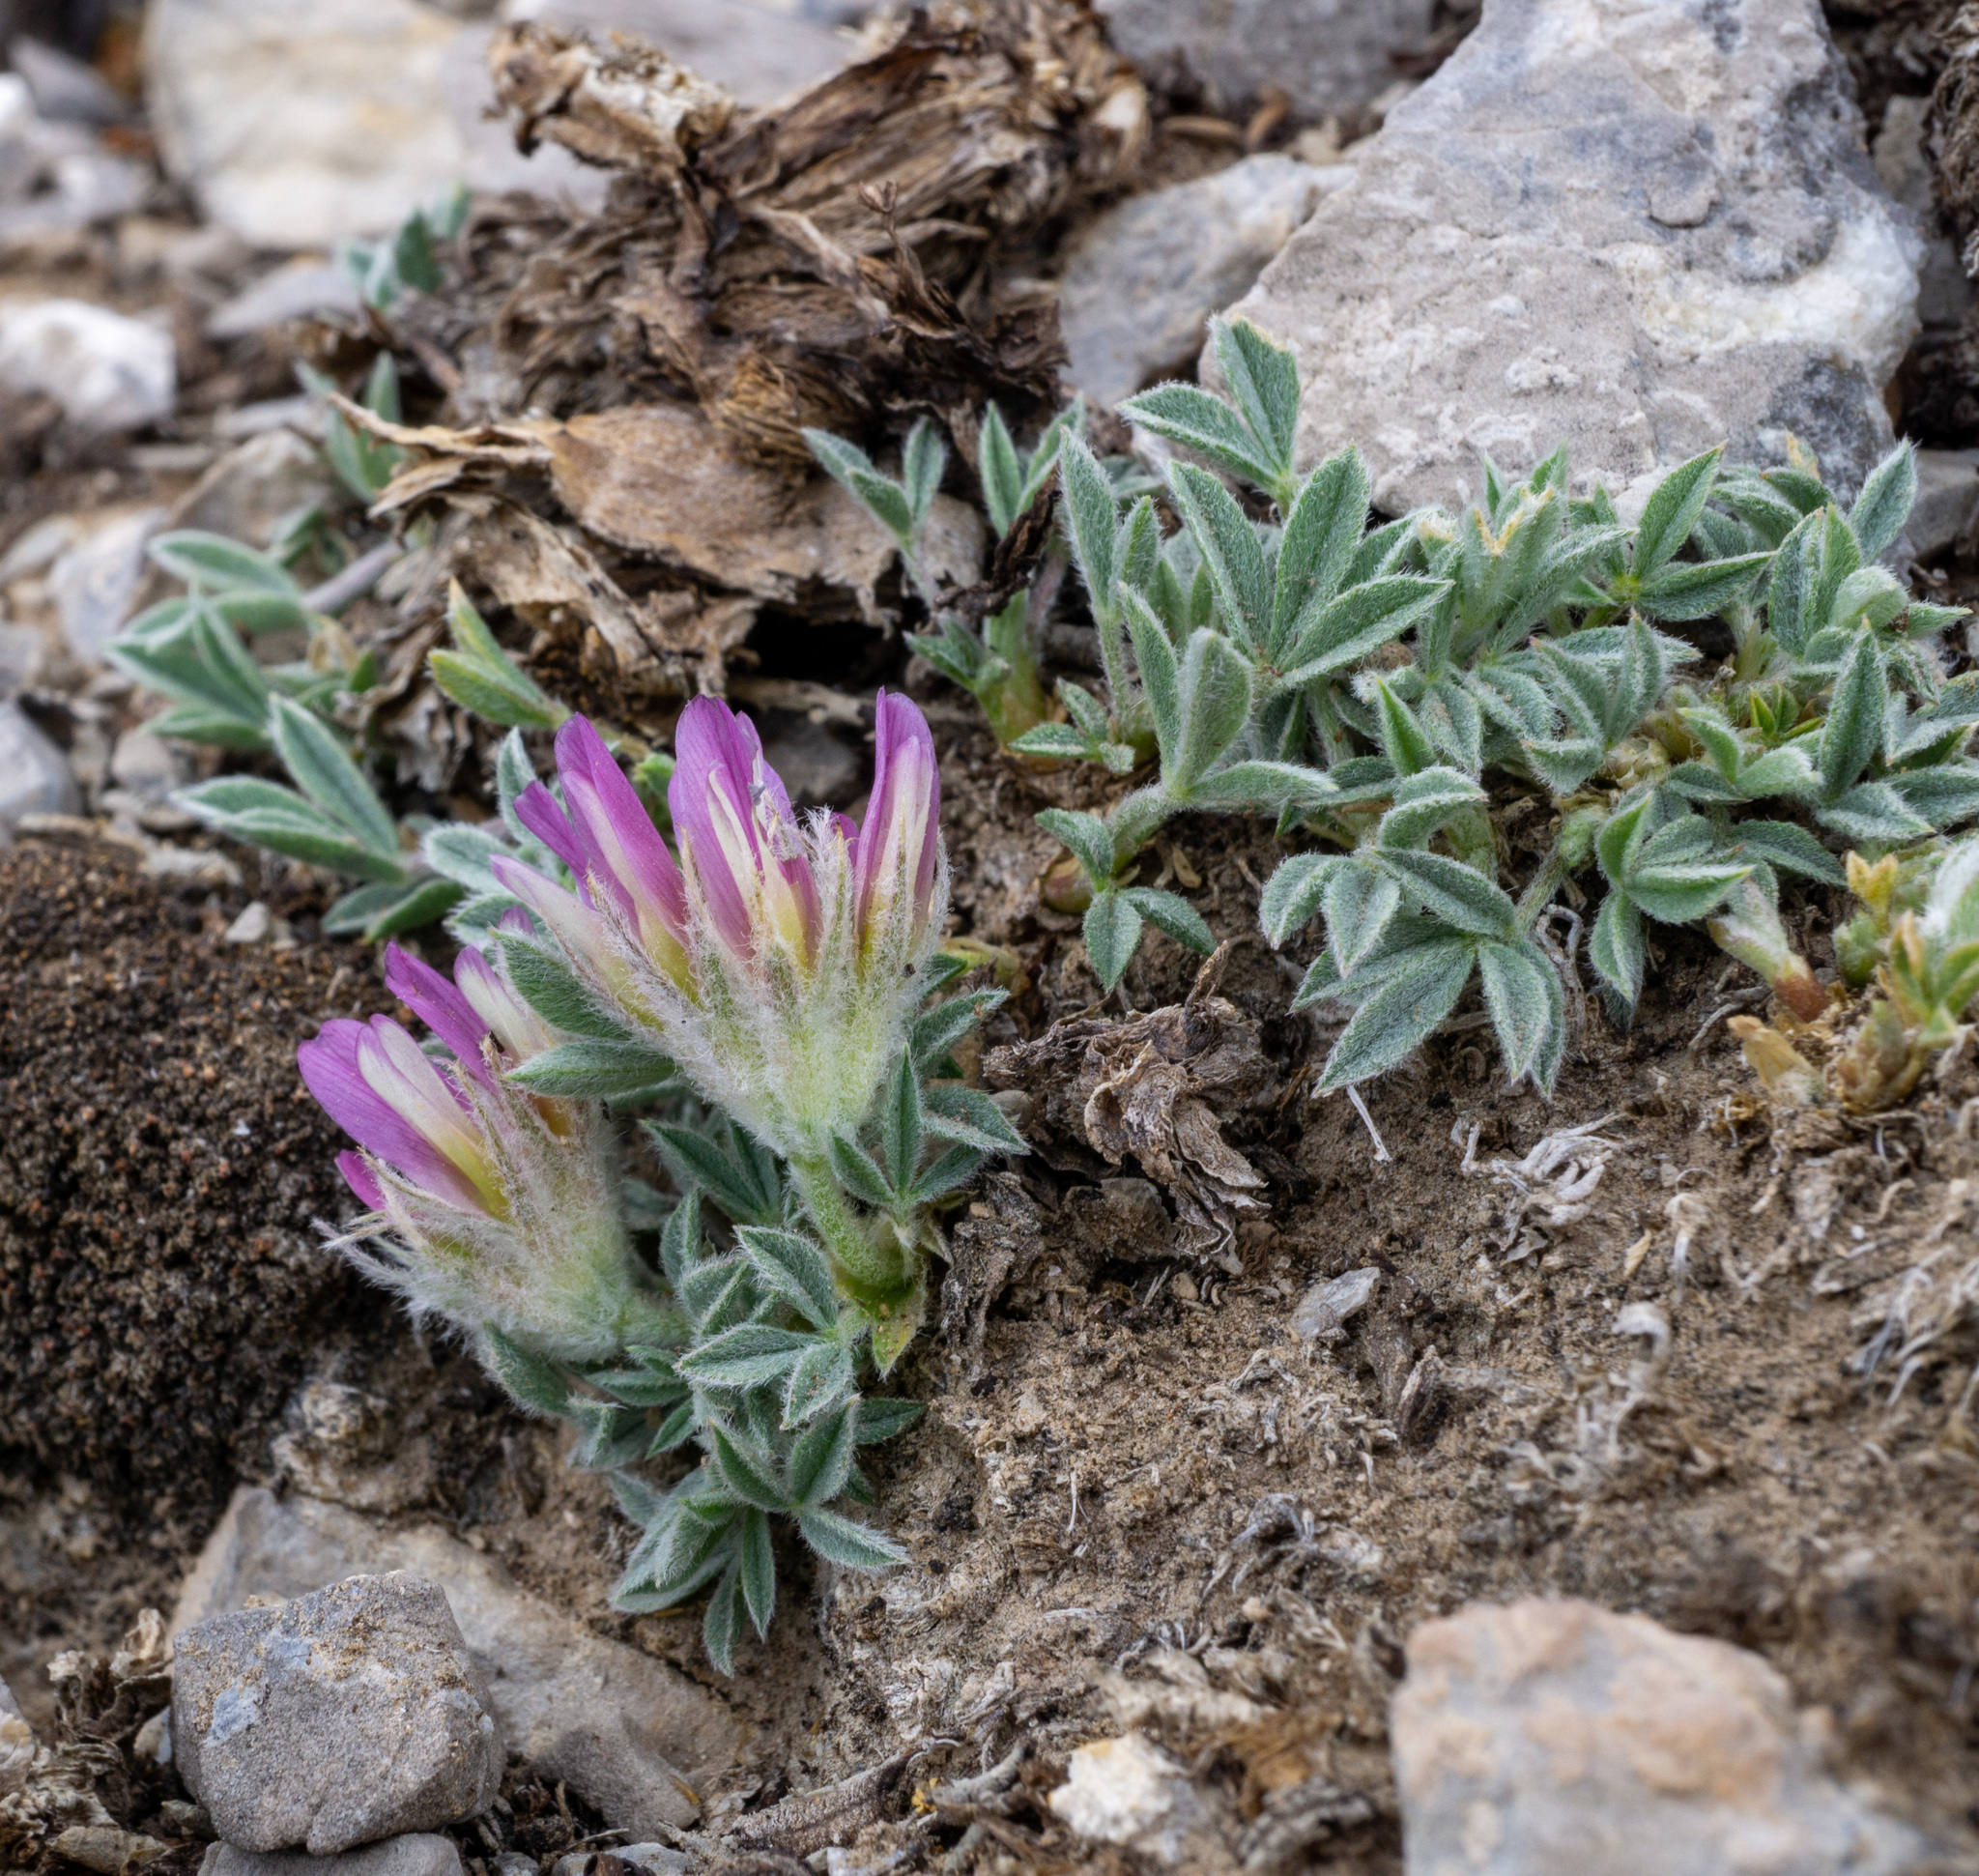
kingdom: Plantae
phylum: Tracheophyta
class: Magnoliopsida
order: Fabales
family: Fabaceae
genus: Trifolium
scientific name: Trifolium friscanum
